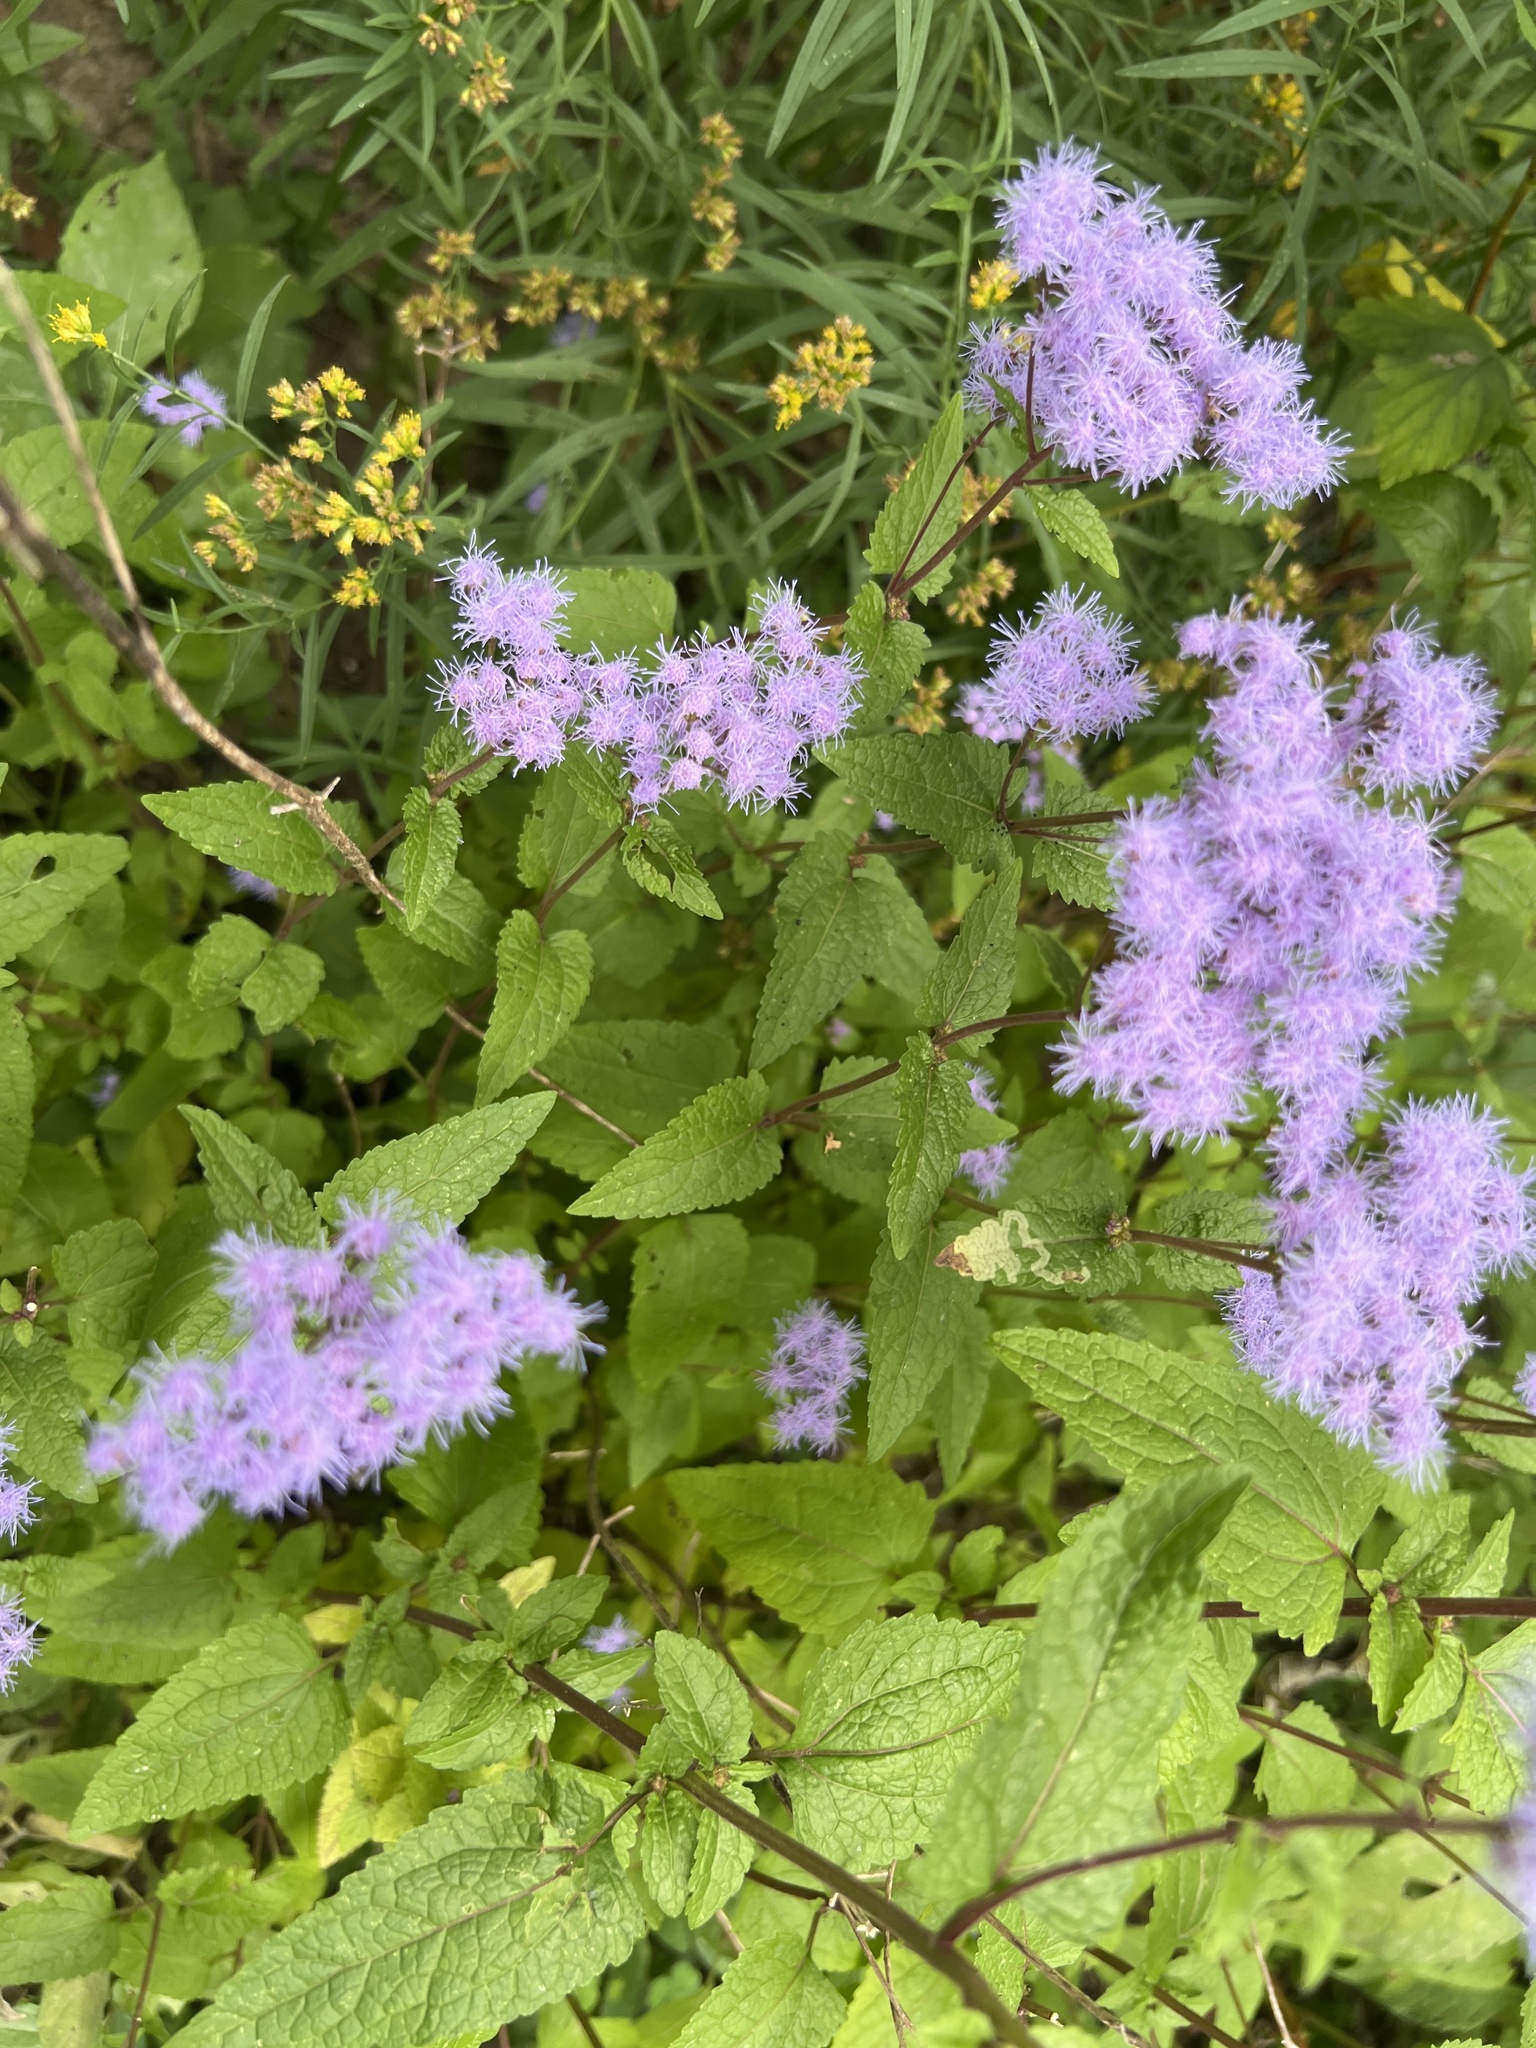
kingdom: Plantae
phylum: Tracheophyta
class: Magnoliopsida
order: Asterales
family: Asteraceae
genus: Conoclinium
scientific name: Conoclinium coelestinum
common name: Blue mistflower
